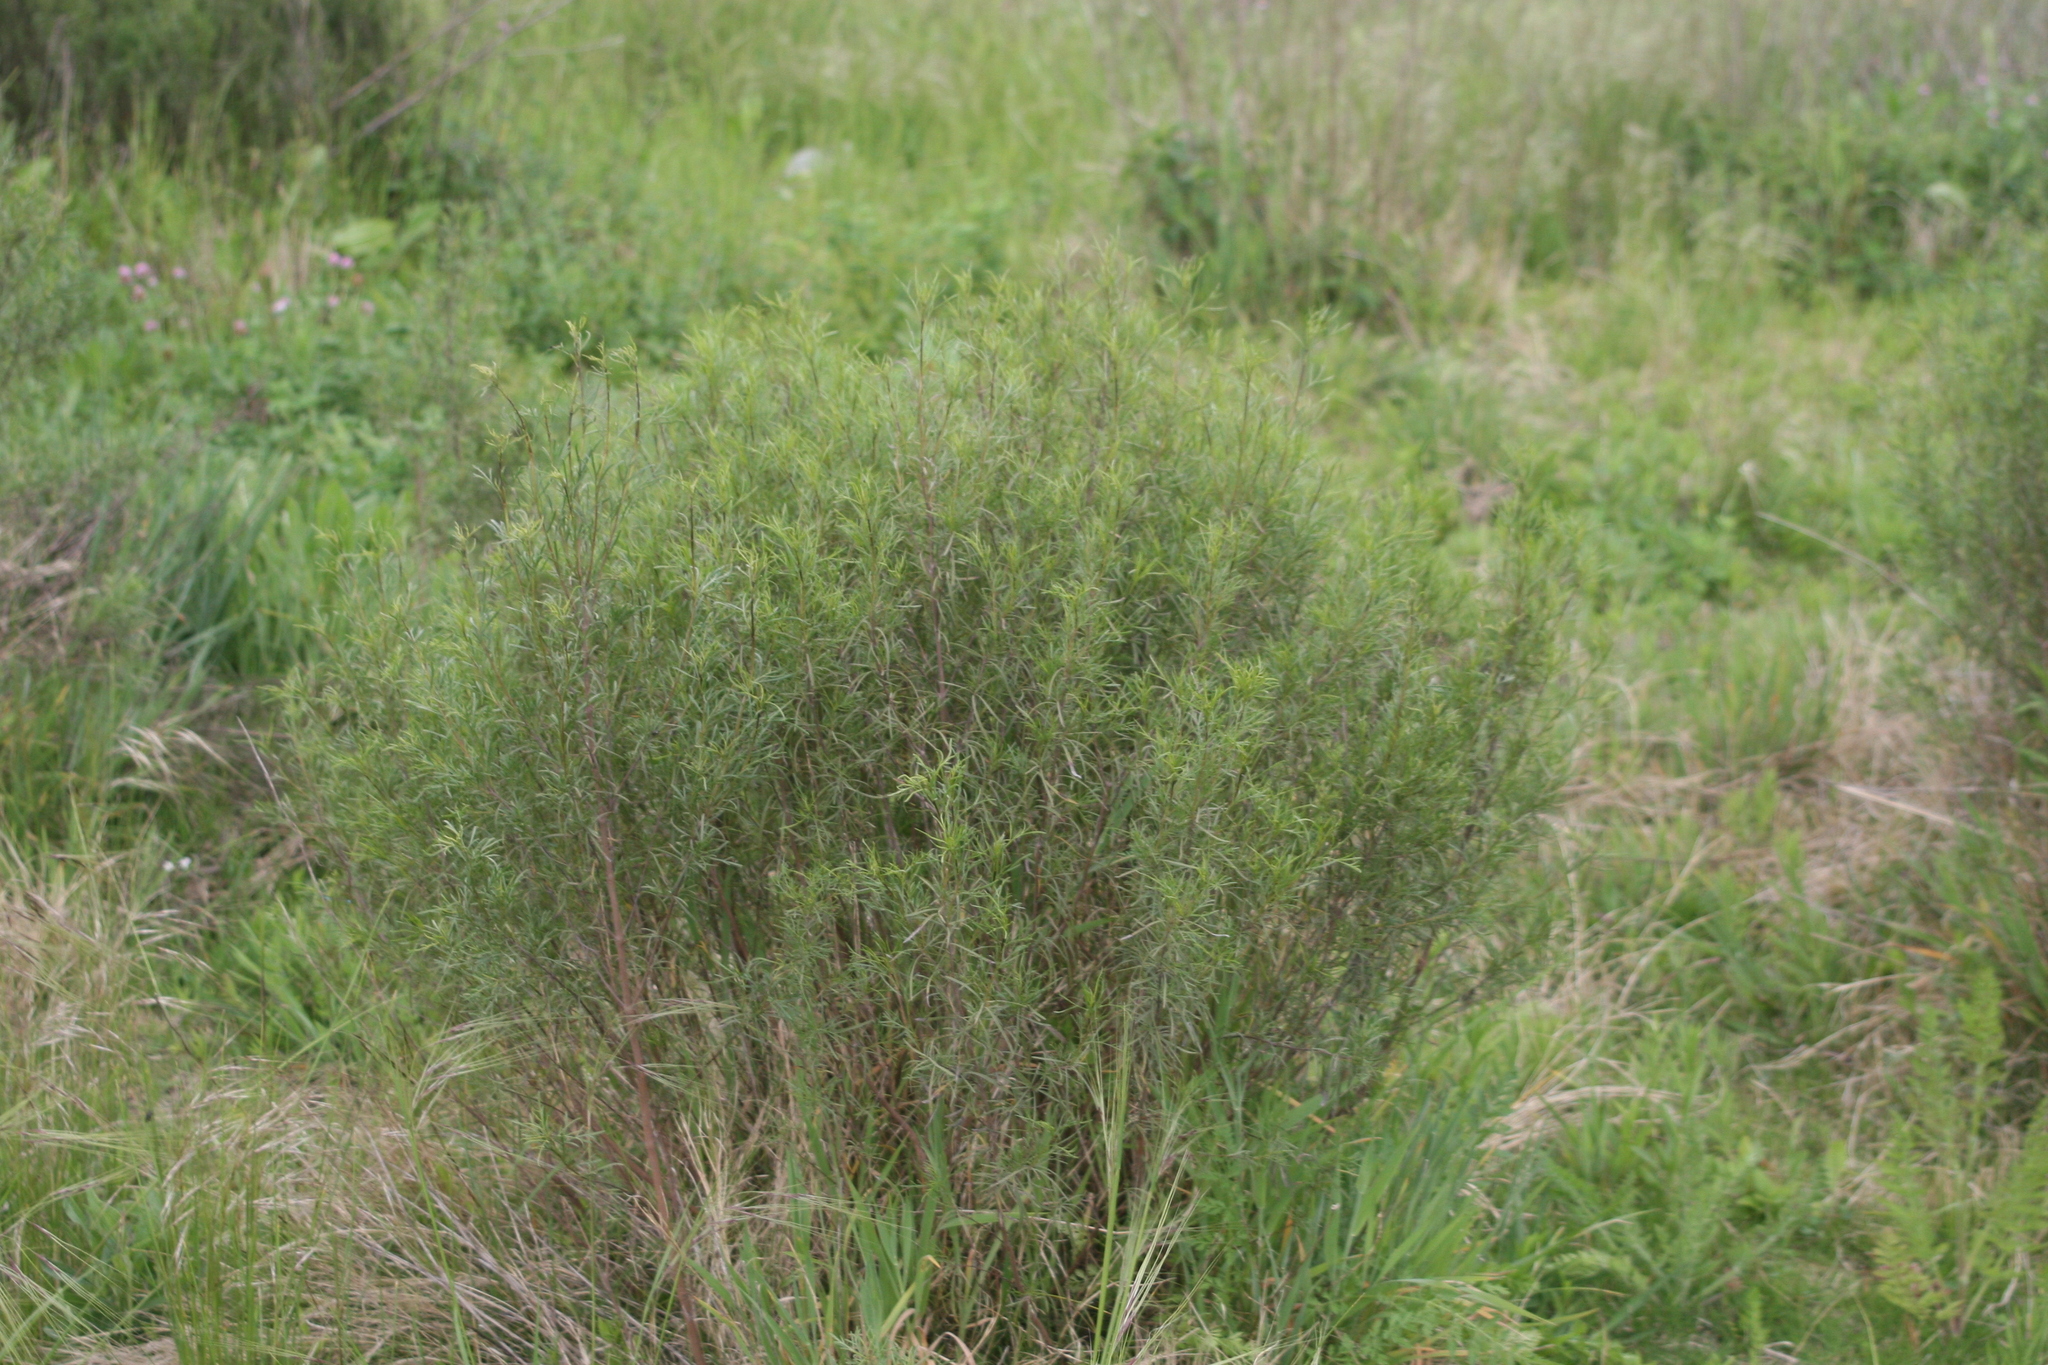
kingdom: Plantae
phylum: Tracheophyta
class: Magnoliopsida
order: Asterales
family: Asteraceae
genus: Acanthostyles
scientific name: Acanthostyles buniifolius
